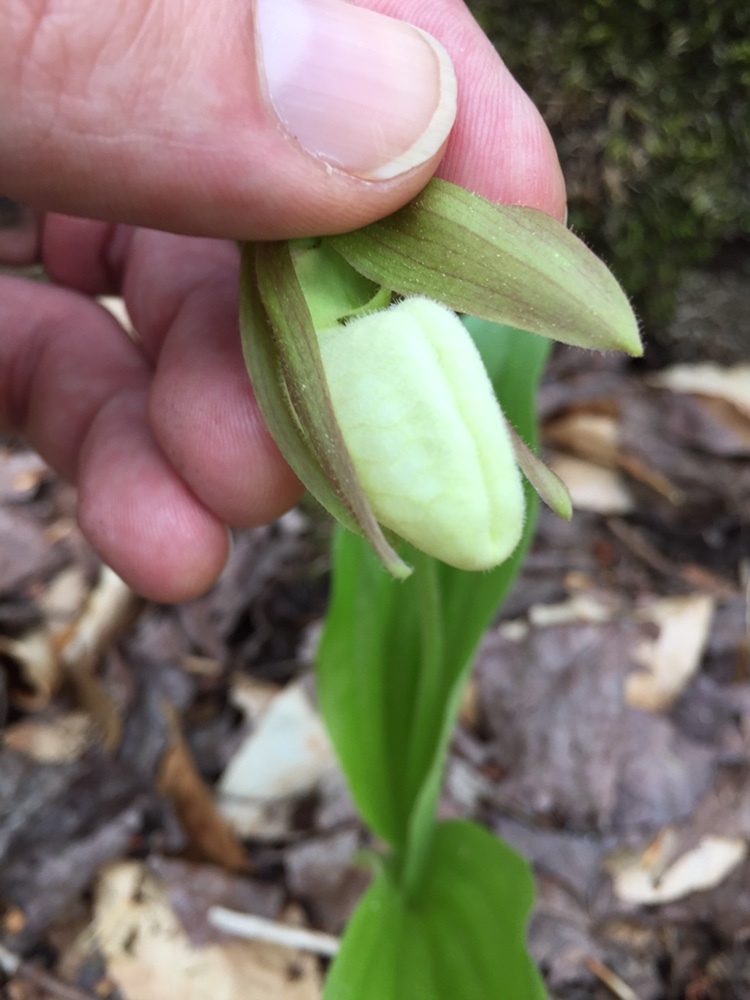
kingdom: Plantae
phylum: Tracheophyta
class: Liliopsida
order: Asparagales
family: Orchidaceae
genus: Cypripedium
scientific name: Cypripedium acaule
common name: Pink lady's-slipper
